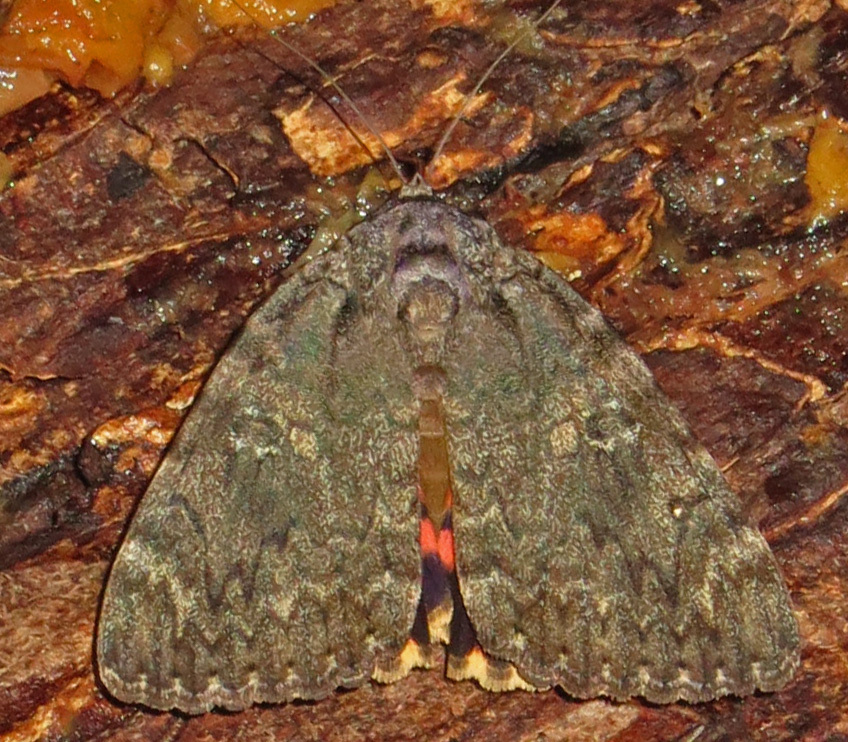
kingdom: Animalia
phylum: Arthropoda
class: Insecta
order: Lepidoptera
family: Erebidae
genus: Catocala
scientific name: Catocala umbrosa
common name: Umber underwing
